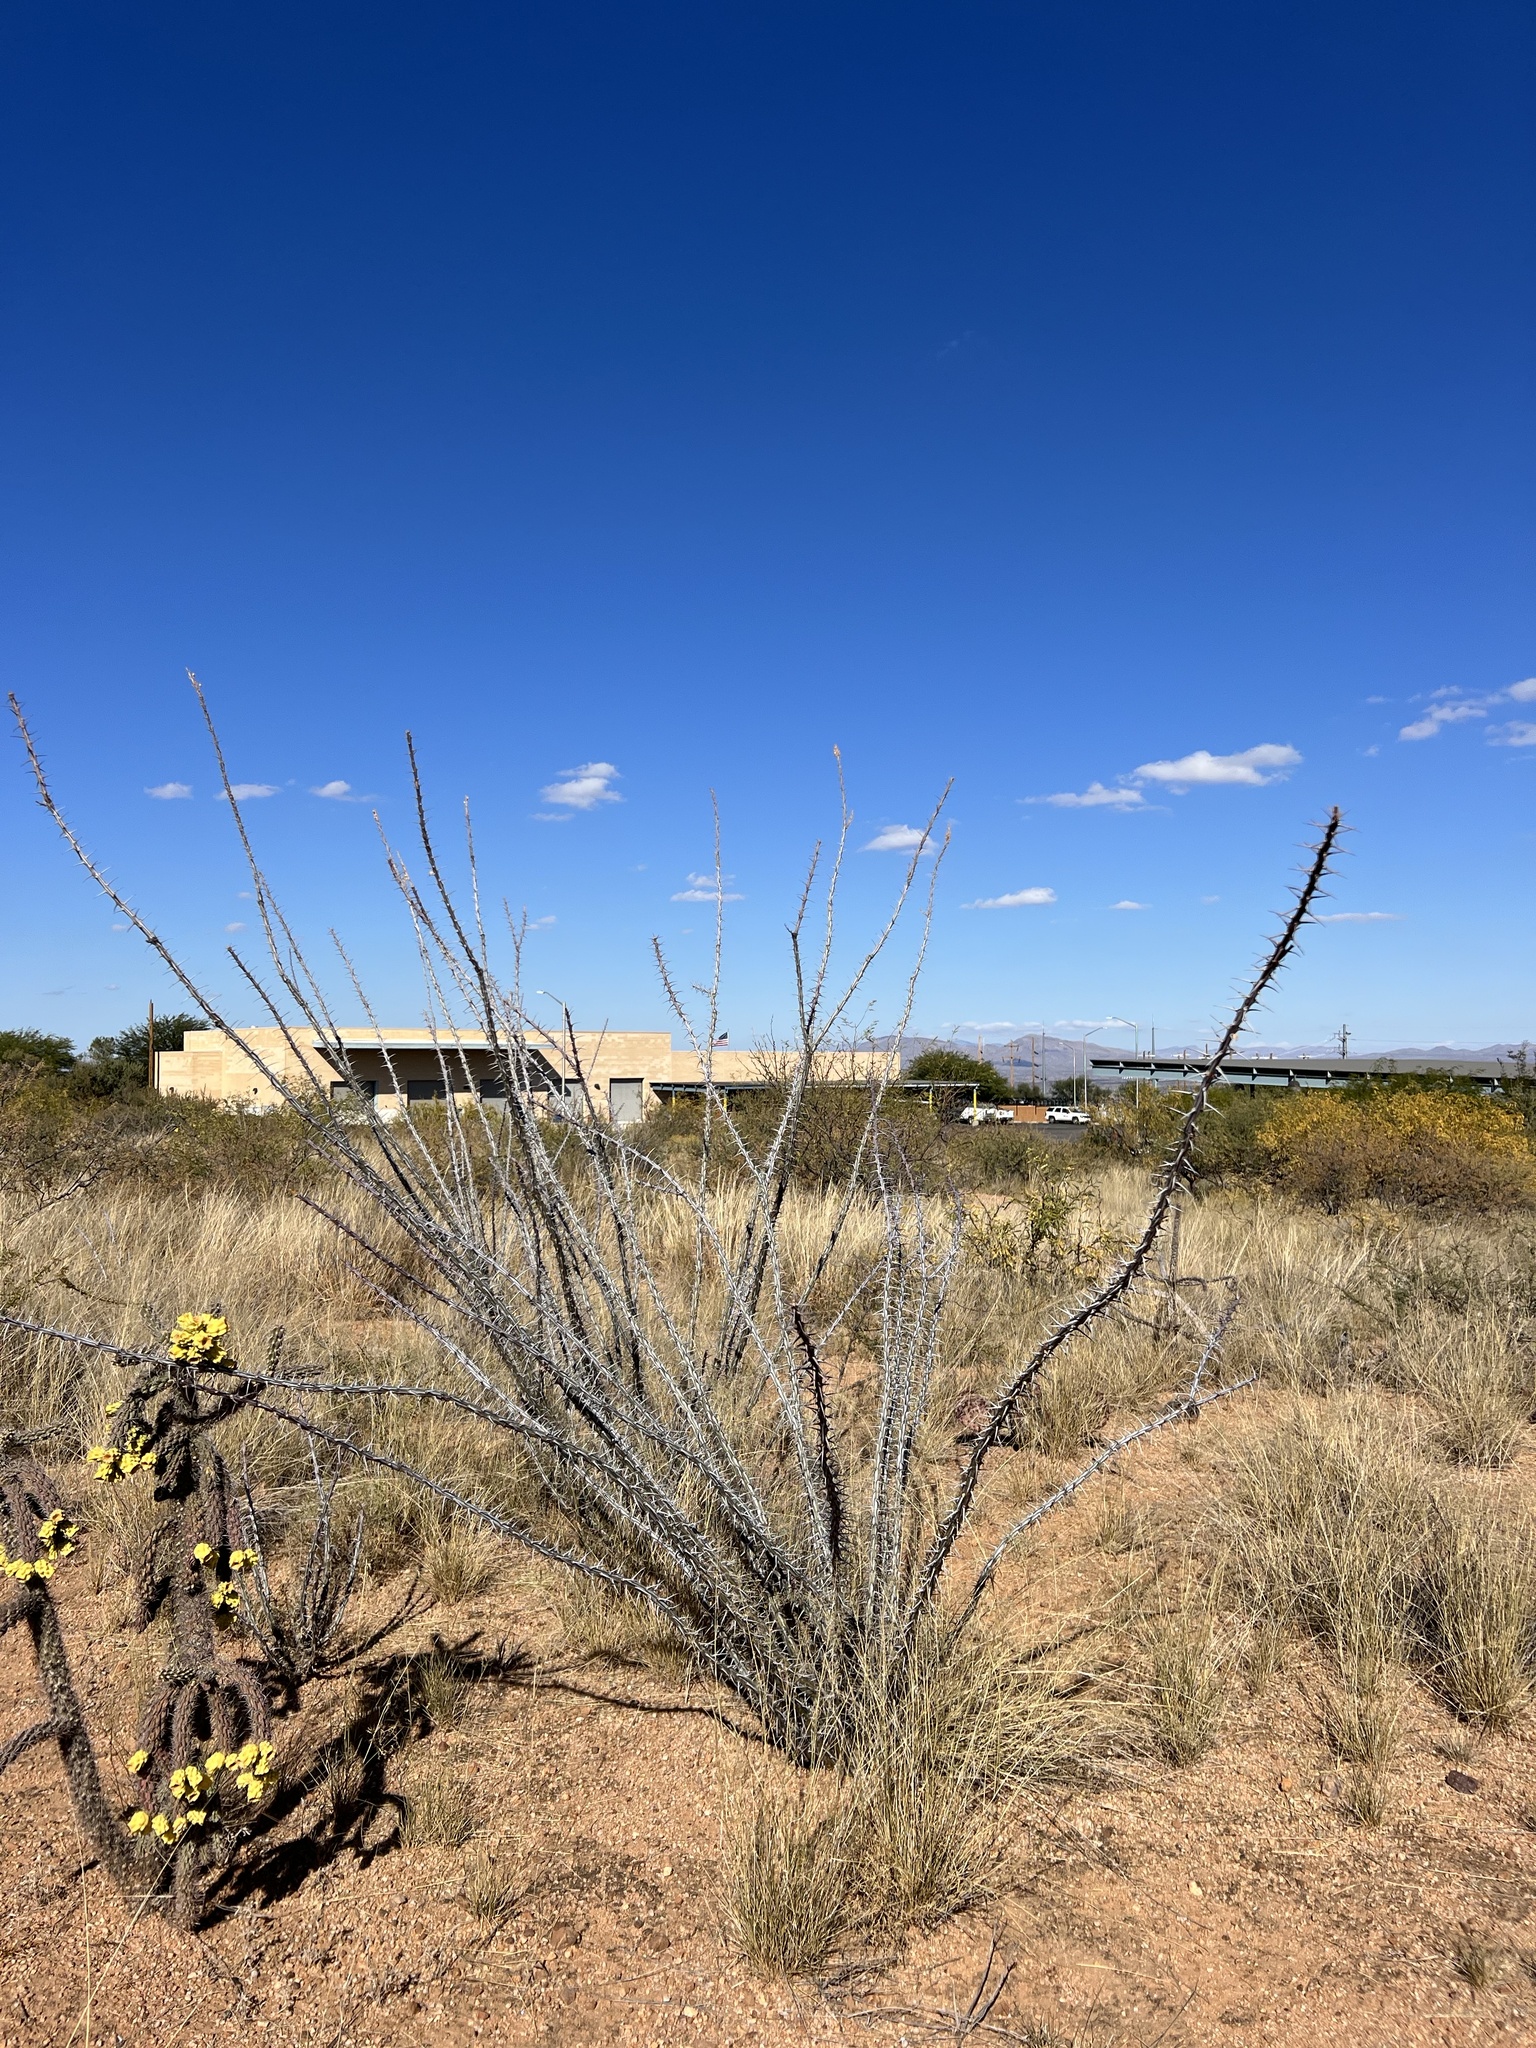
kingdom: Plantae
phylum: Tracheophyta
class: Magnoliopsida
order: Ericales
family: Fouquieriaceae
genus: Fouquieria
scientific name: Fouquieria splendens
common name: Vine-cactus
